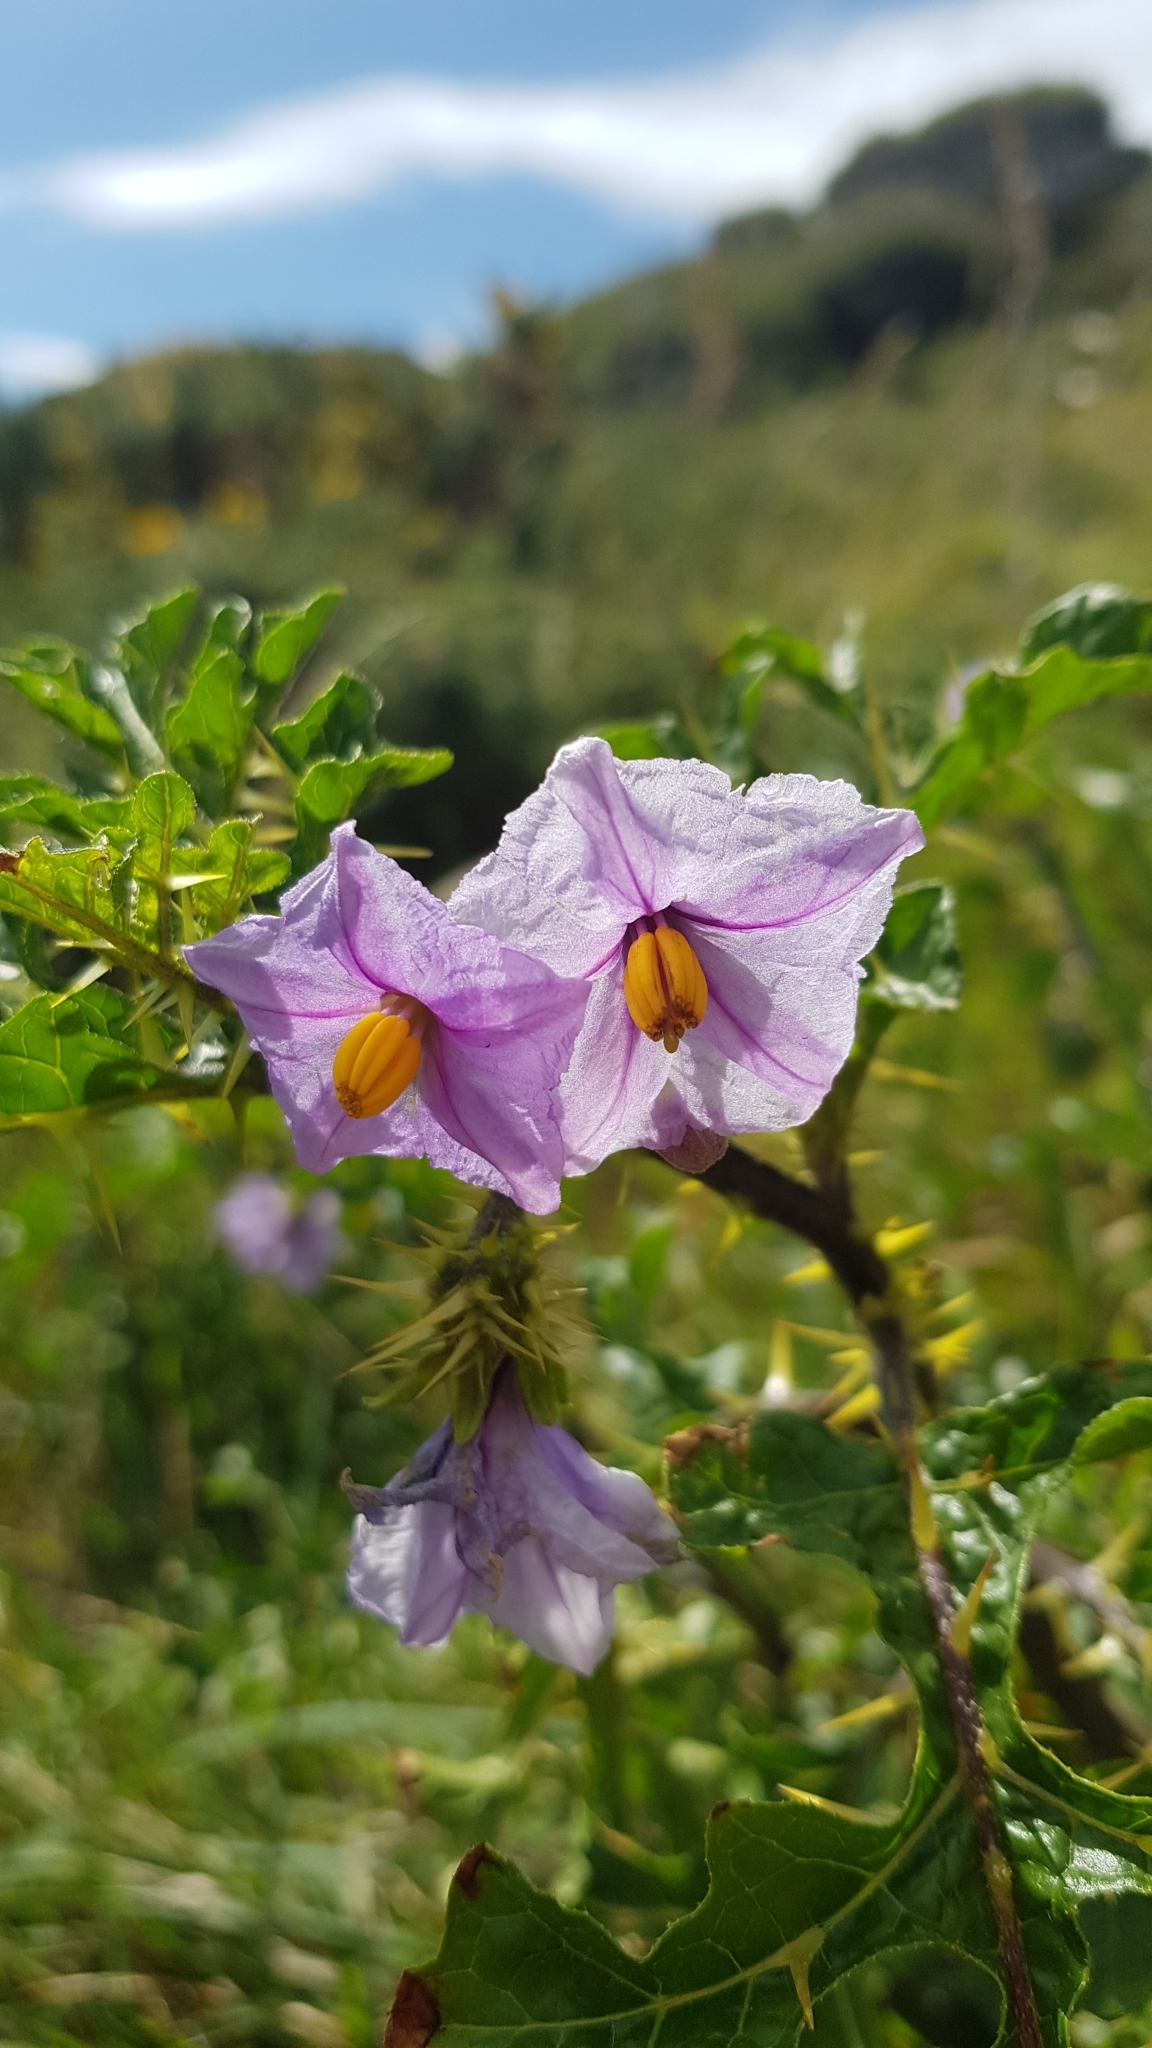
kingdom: Plantae
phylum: Tracheophyta
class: Magnoliopsida
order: Solanales
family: Solanaceae
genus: Solanum
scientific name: Solanum linnaeanum
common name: Nightshade
